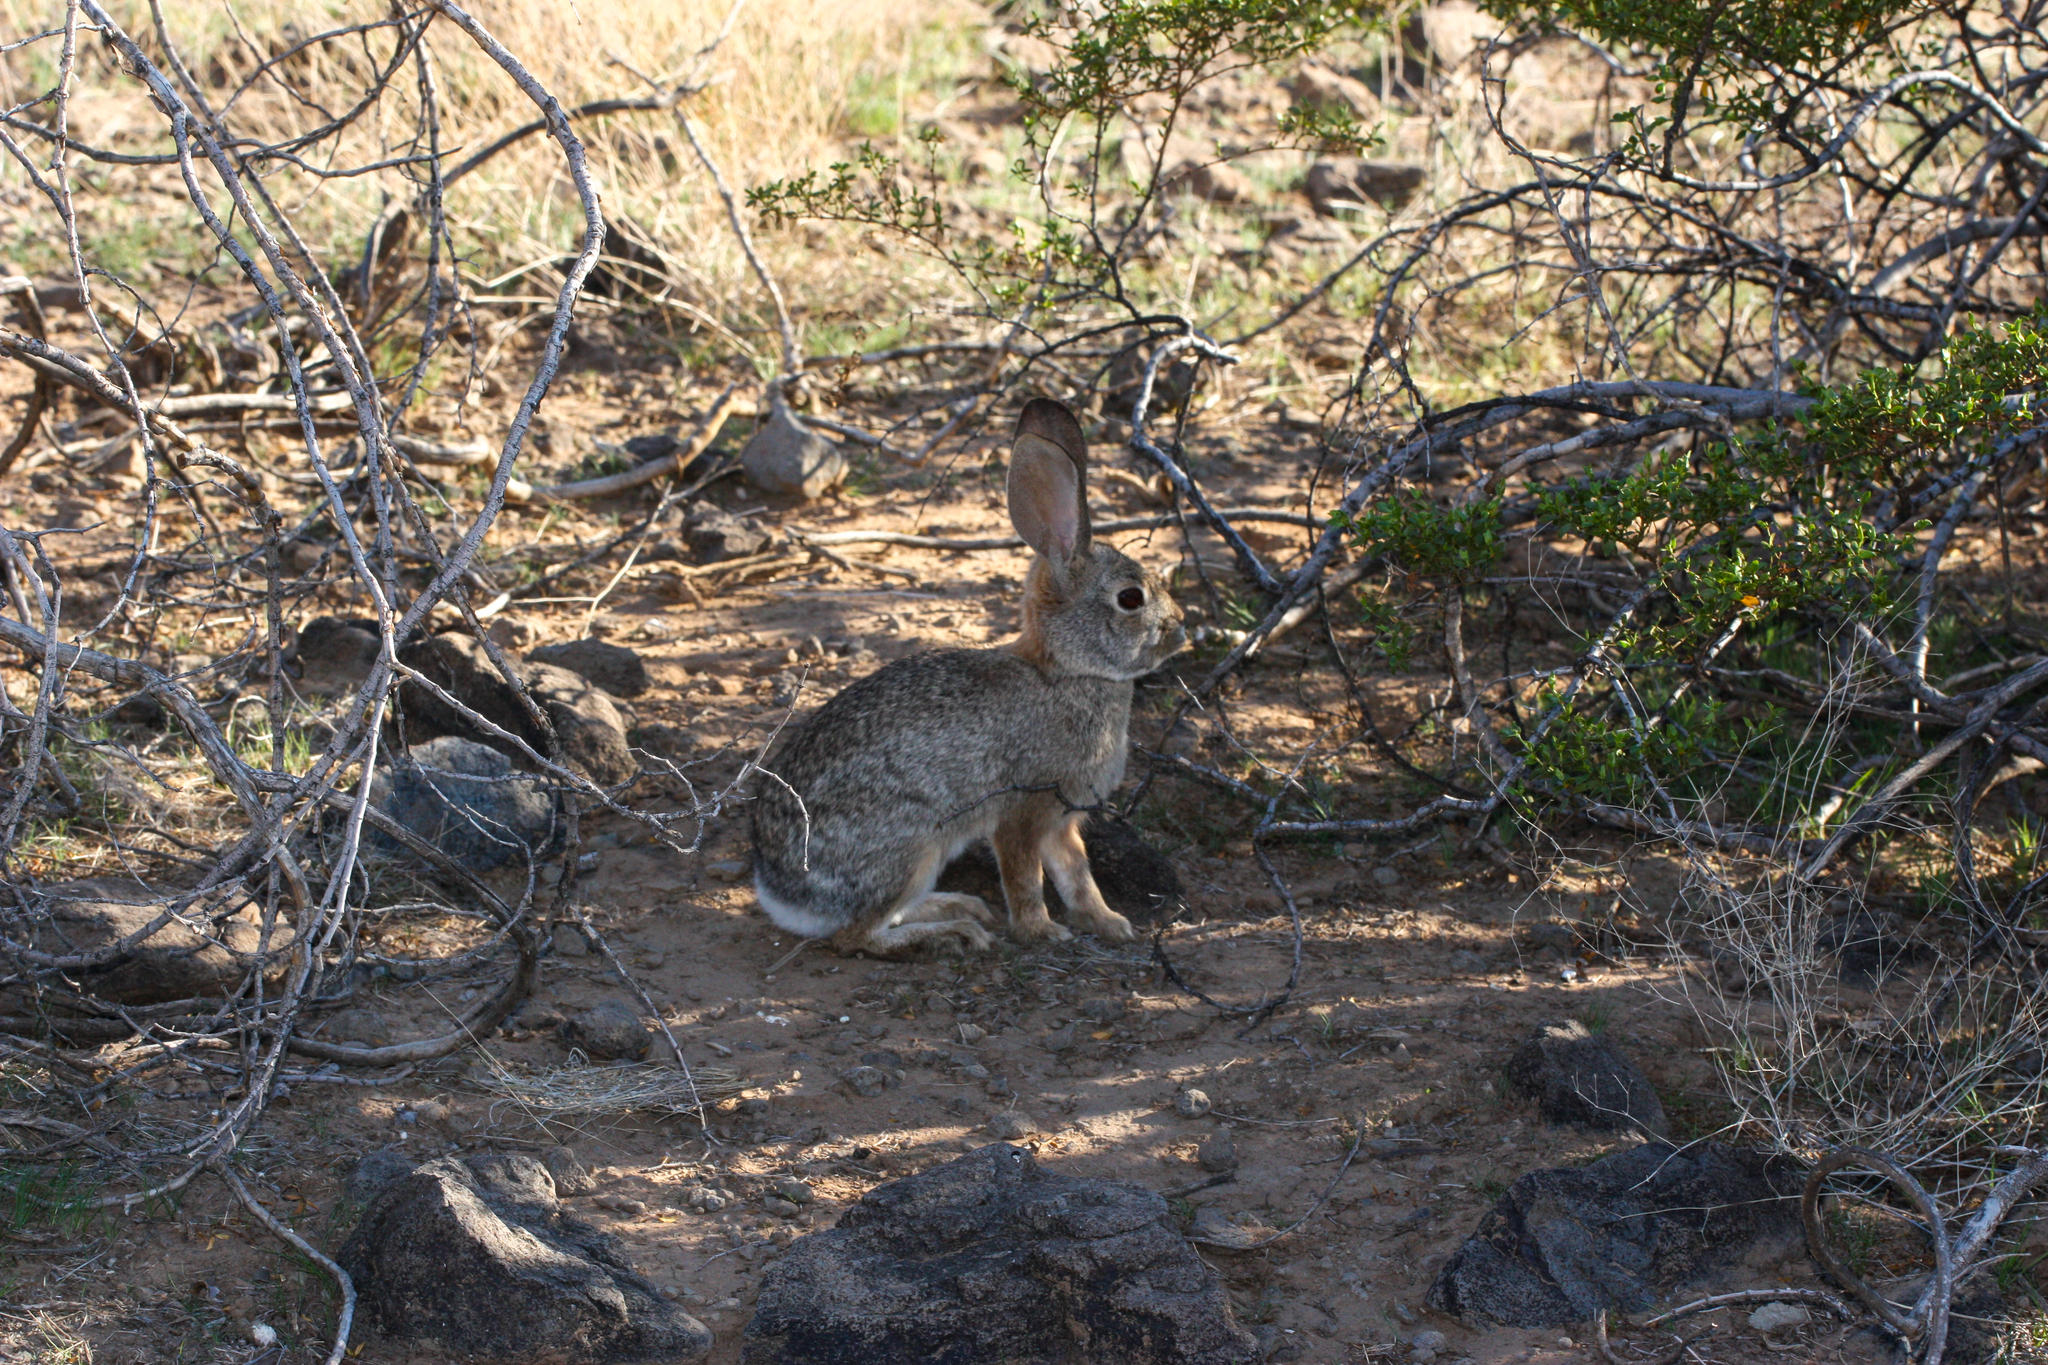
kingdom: Animalia
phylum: Chordata
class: Mammalia
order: Lagomorpha
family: Leporidae
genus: Sylvilagus
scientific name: Sylvilagus audubonii
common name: Desert cottontail
